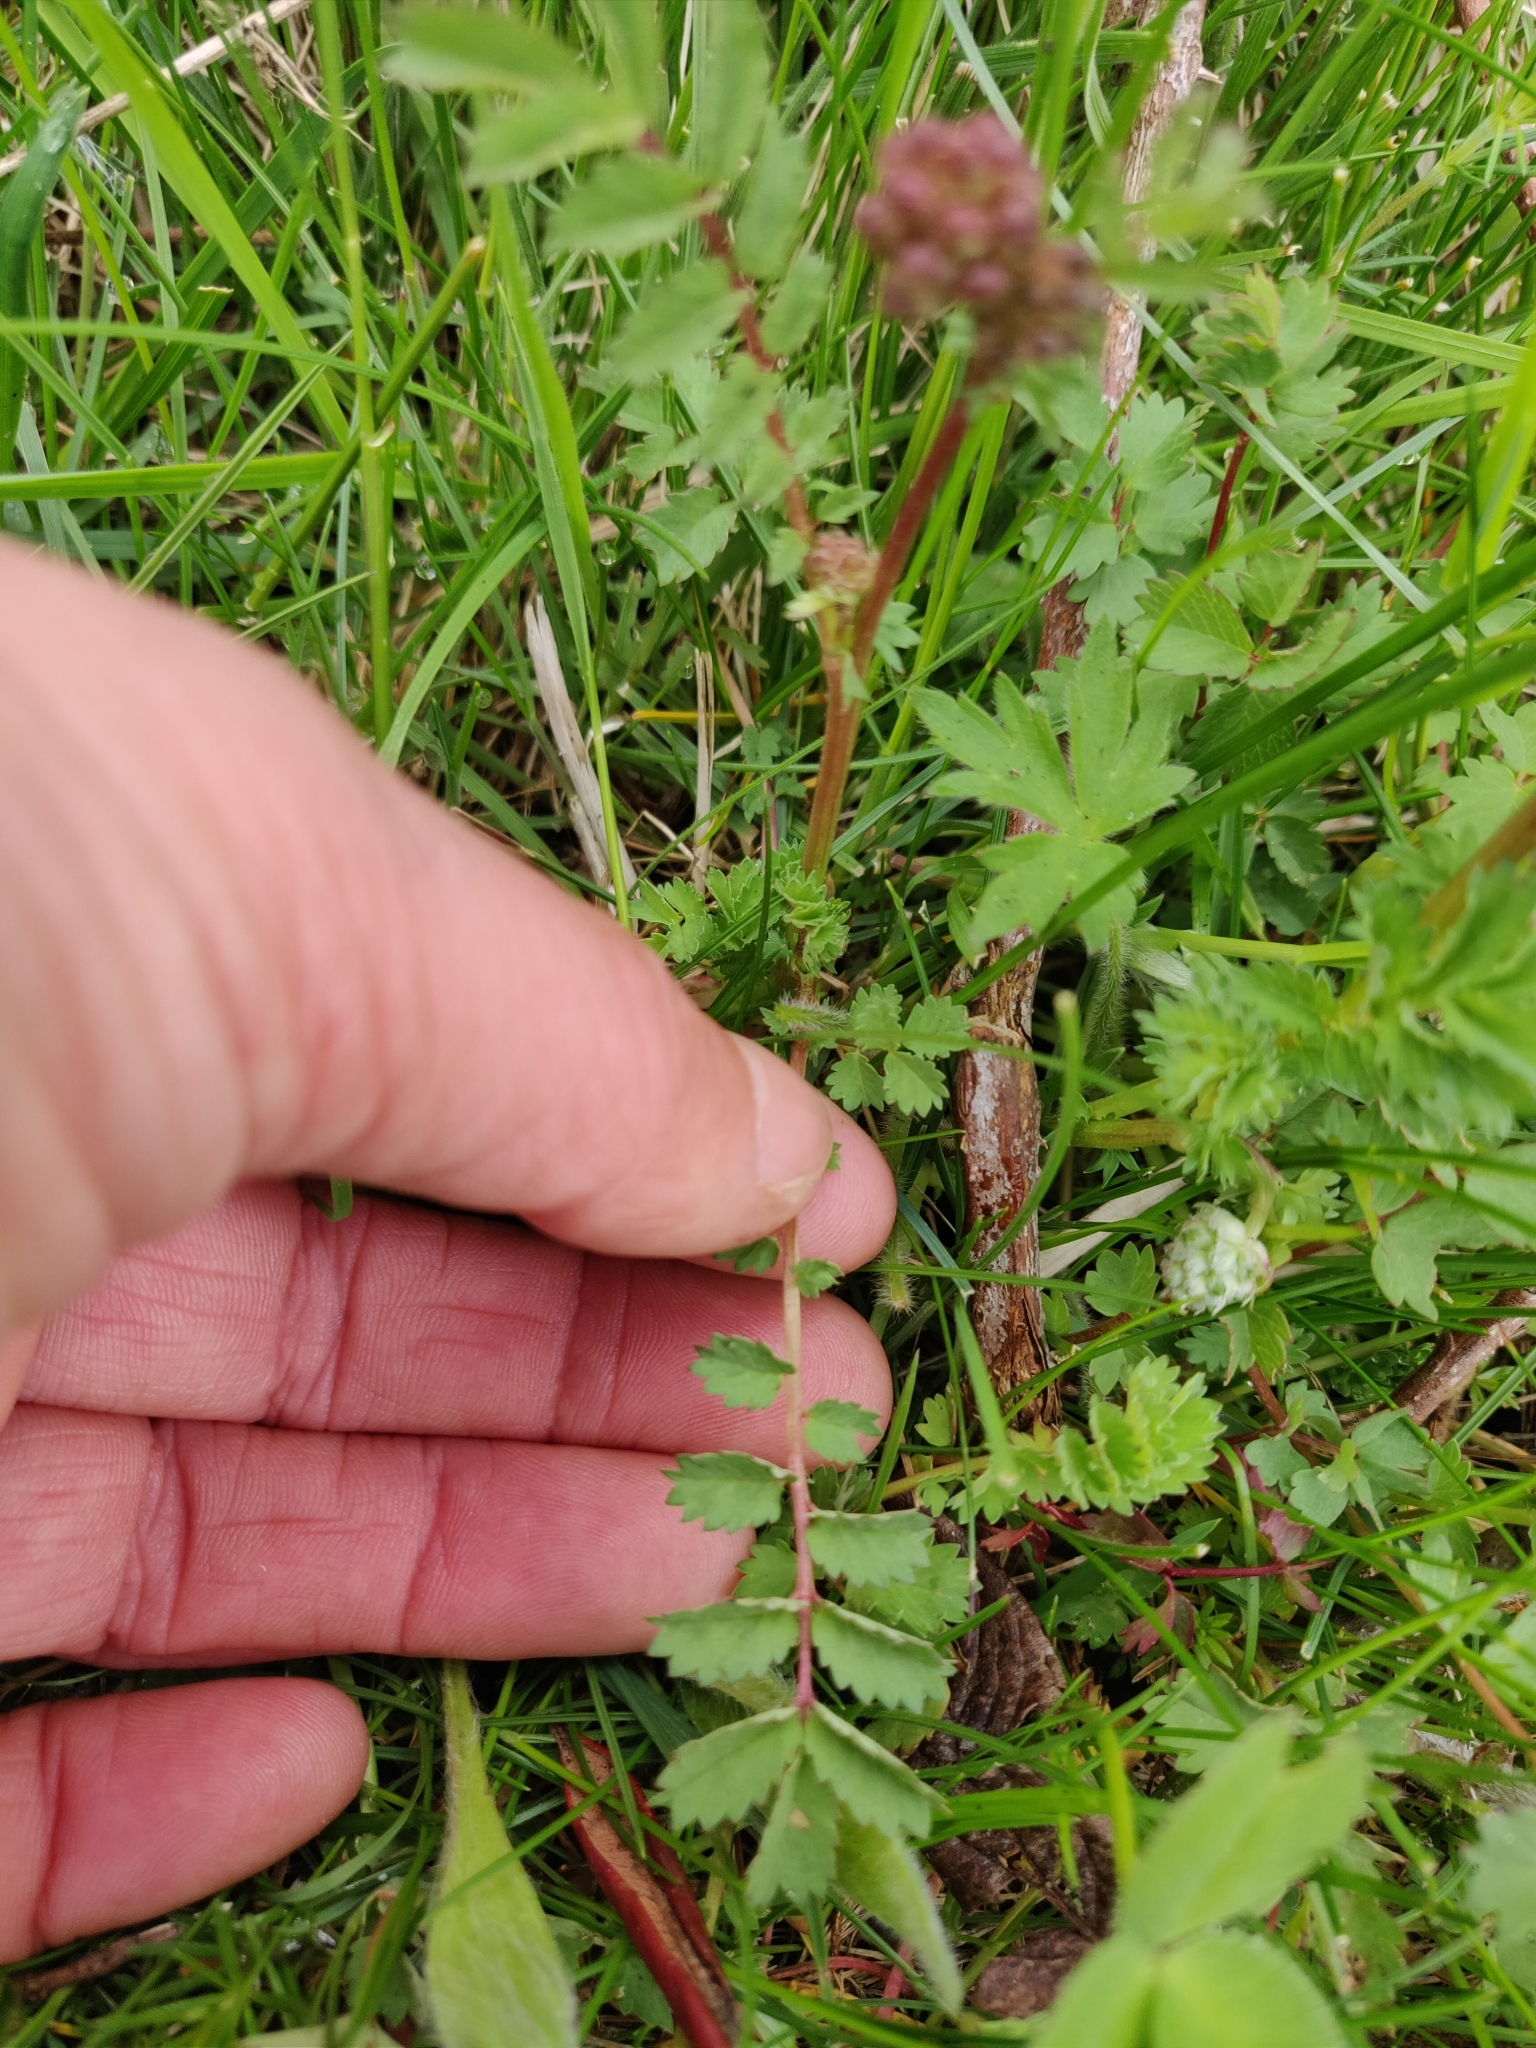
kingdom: Plantae
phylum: Tracheophyta
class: Magnoliopsida
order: Rosales
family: Rosaceae
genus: Poterium
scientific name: Poterium sanguisorba
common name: Salad burnet
